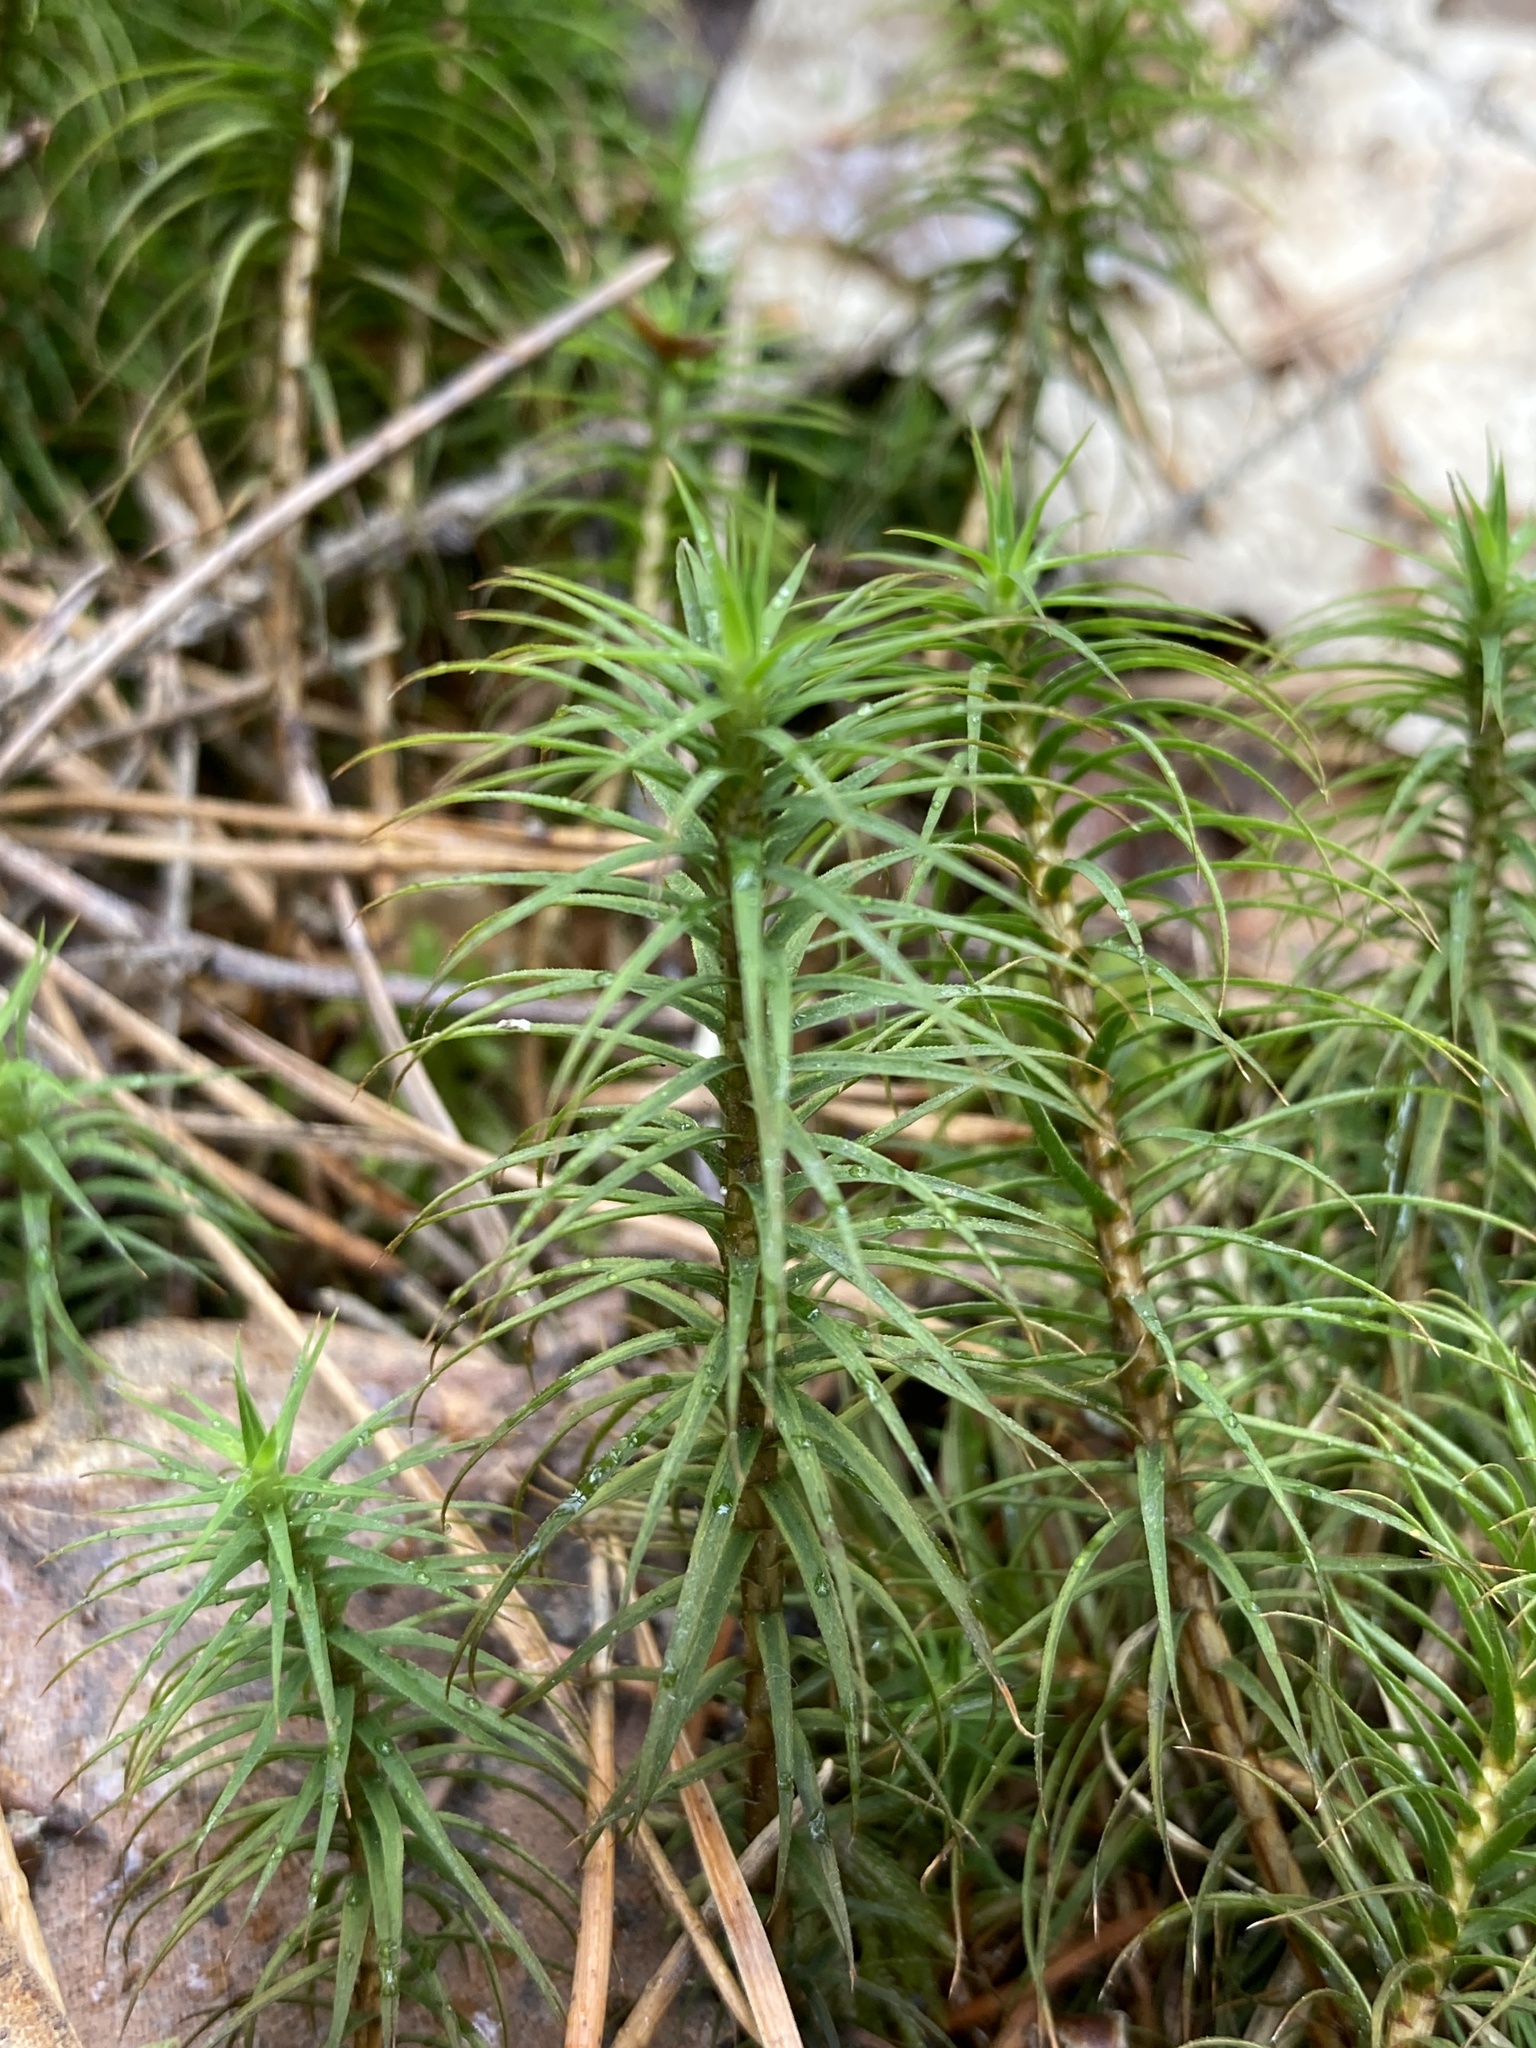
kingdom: Plantae
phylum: Bryophyta
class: Polytrichopsida
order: Polytrichales
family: Polytrichaceae
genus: Polytrichum
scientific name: Polytrichum commune
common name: Common haircap
